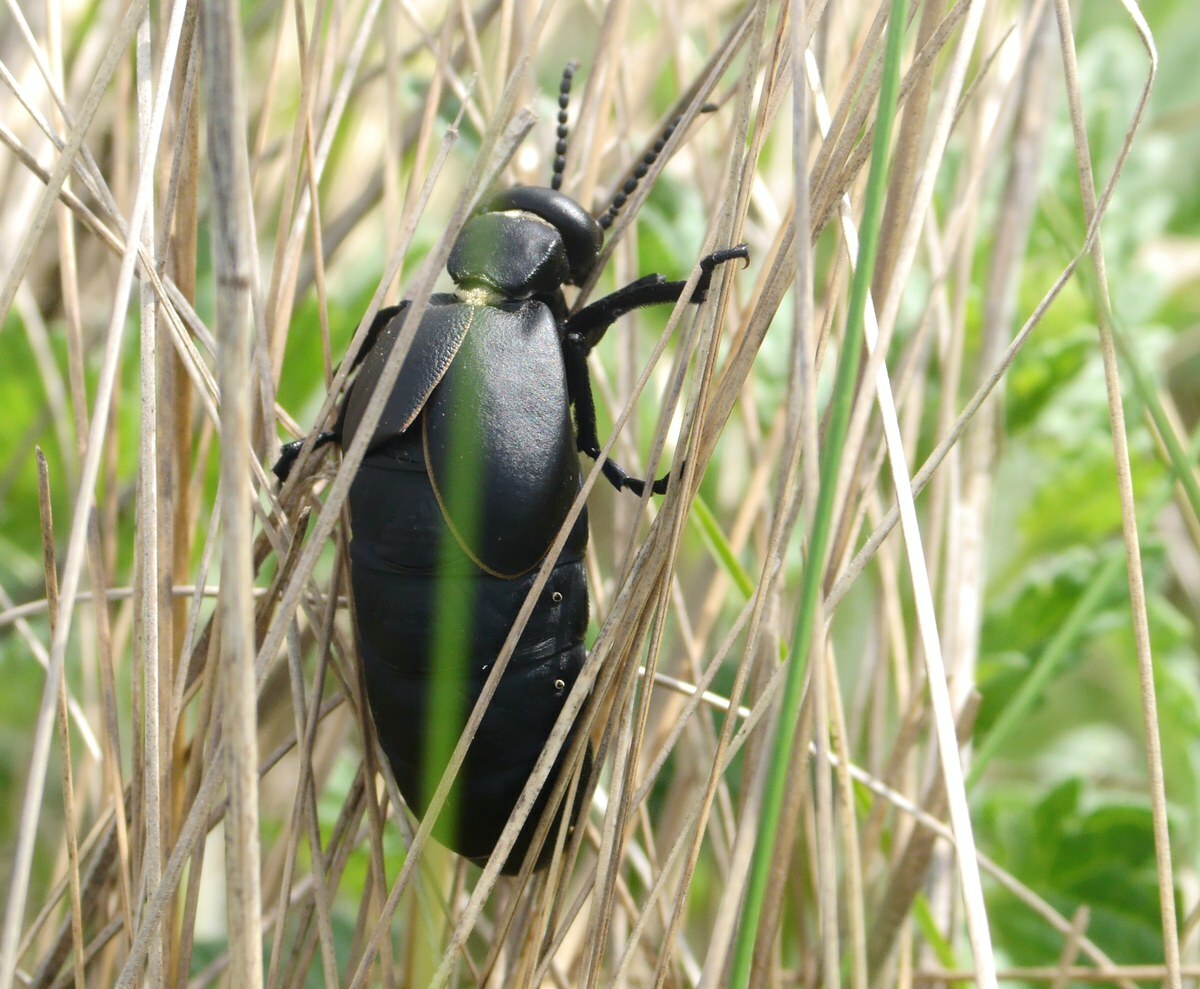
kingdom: Animalia
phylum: Arthropoda
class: Insecta
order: Coleoptera
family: Meloidae
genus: Meloe
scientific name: Meloe hungarus
